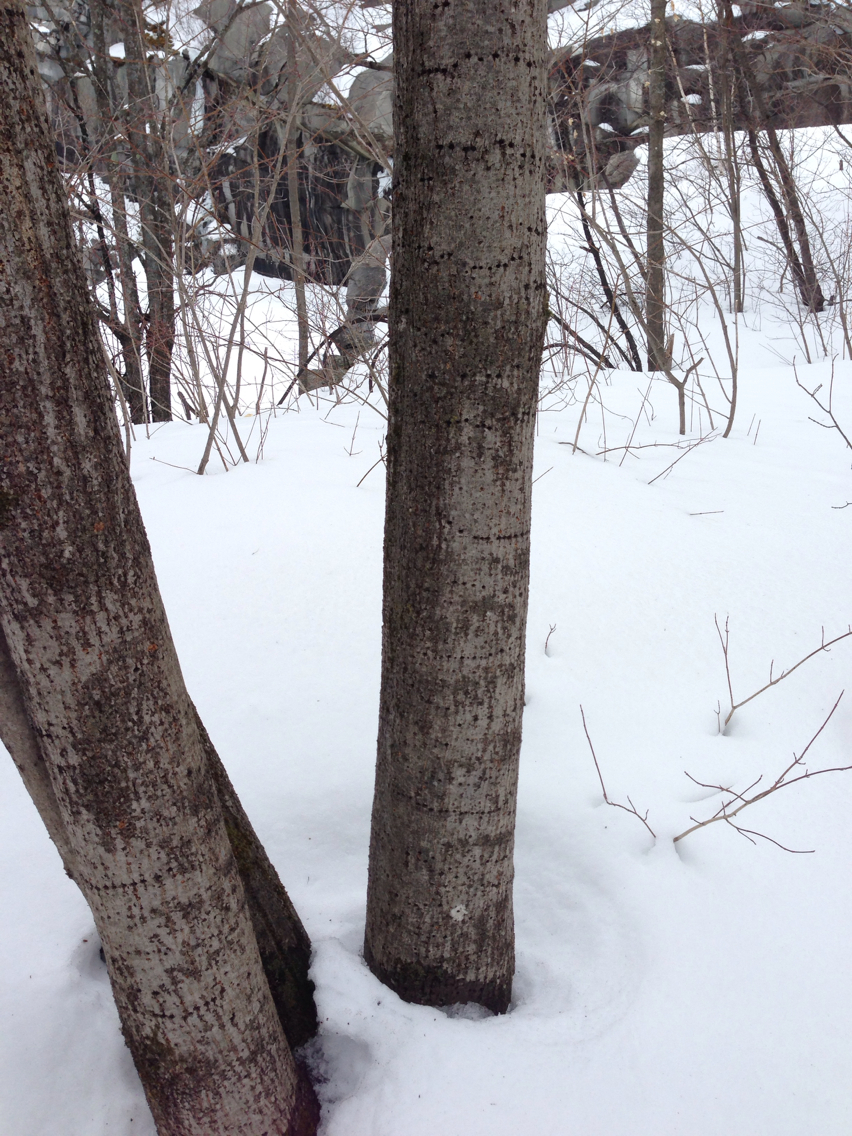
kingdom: Animalia
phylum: Chordata
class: Aves
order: Piciformes
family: Picidae
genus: Sphyrapicus
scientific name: Sphyrapicus varius
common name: Yellow-bellied sapsucker
